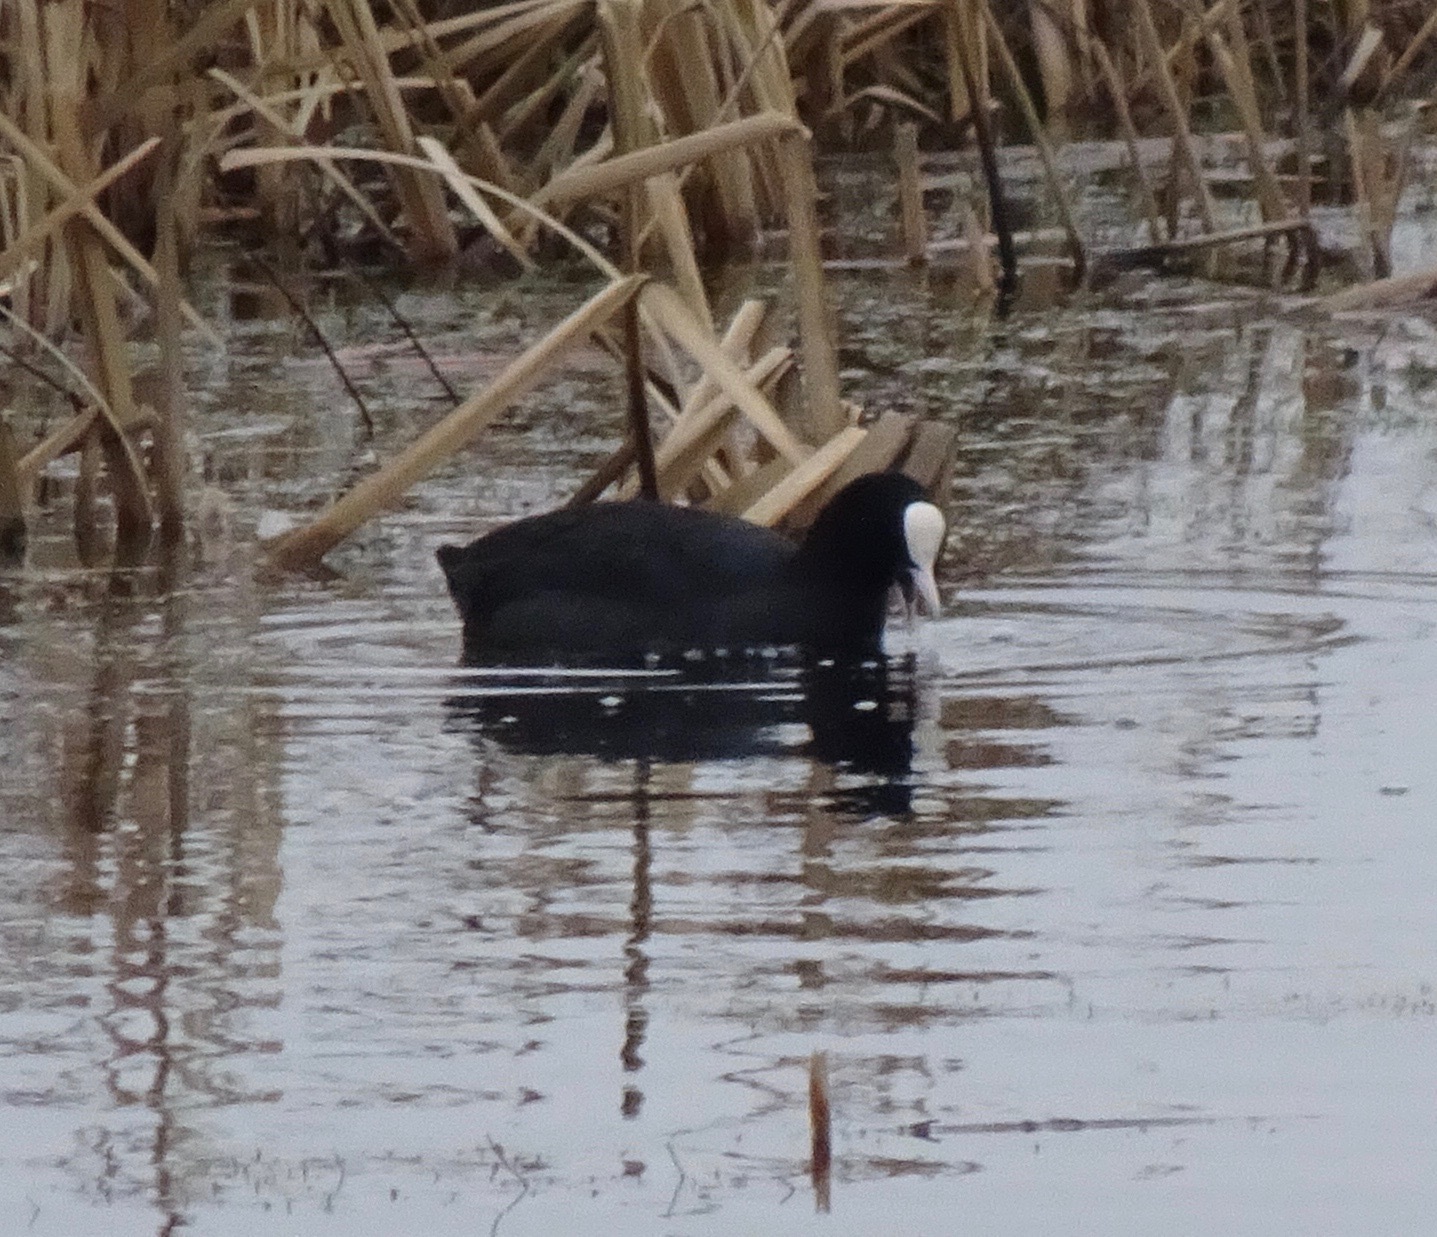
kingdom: Animalia
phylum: Chordata
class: Aves
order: Gruiformes
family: Rallidae
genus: Fulica
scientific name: Fulica atra
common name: Eurasian coot
